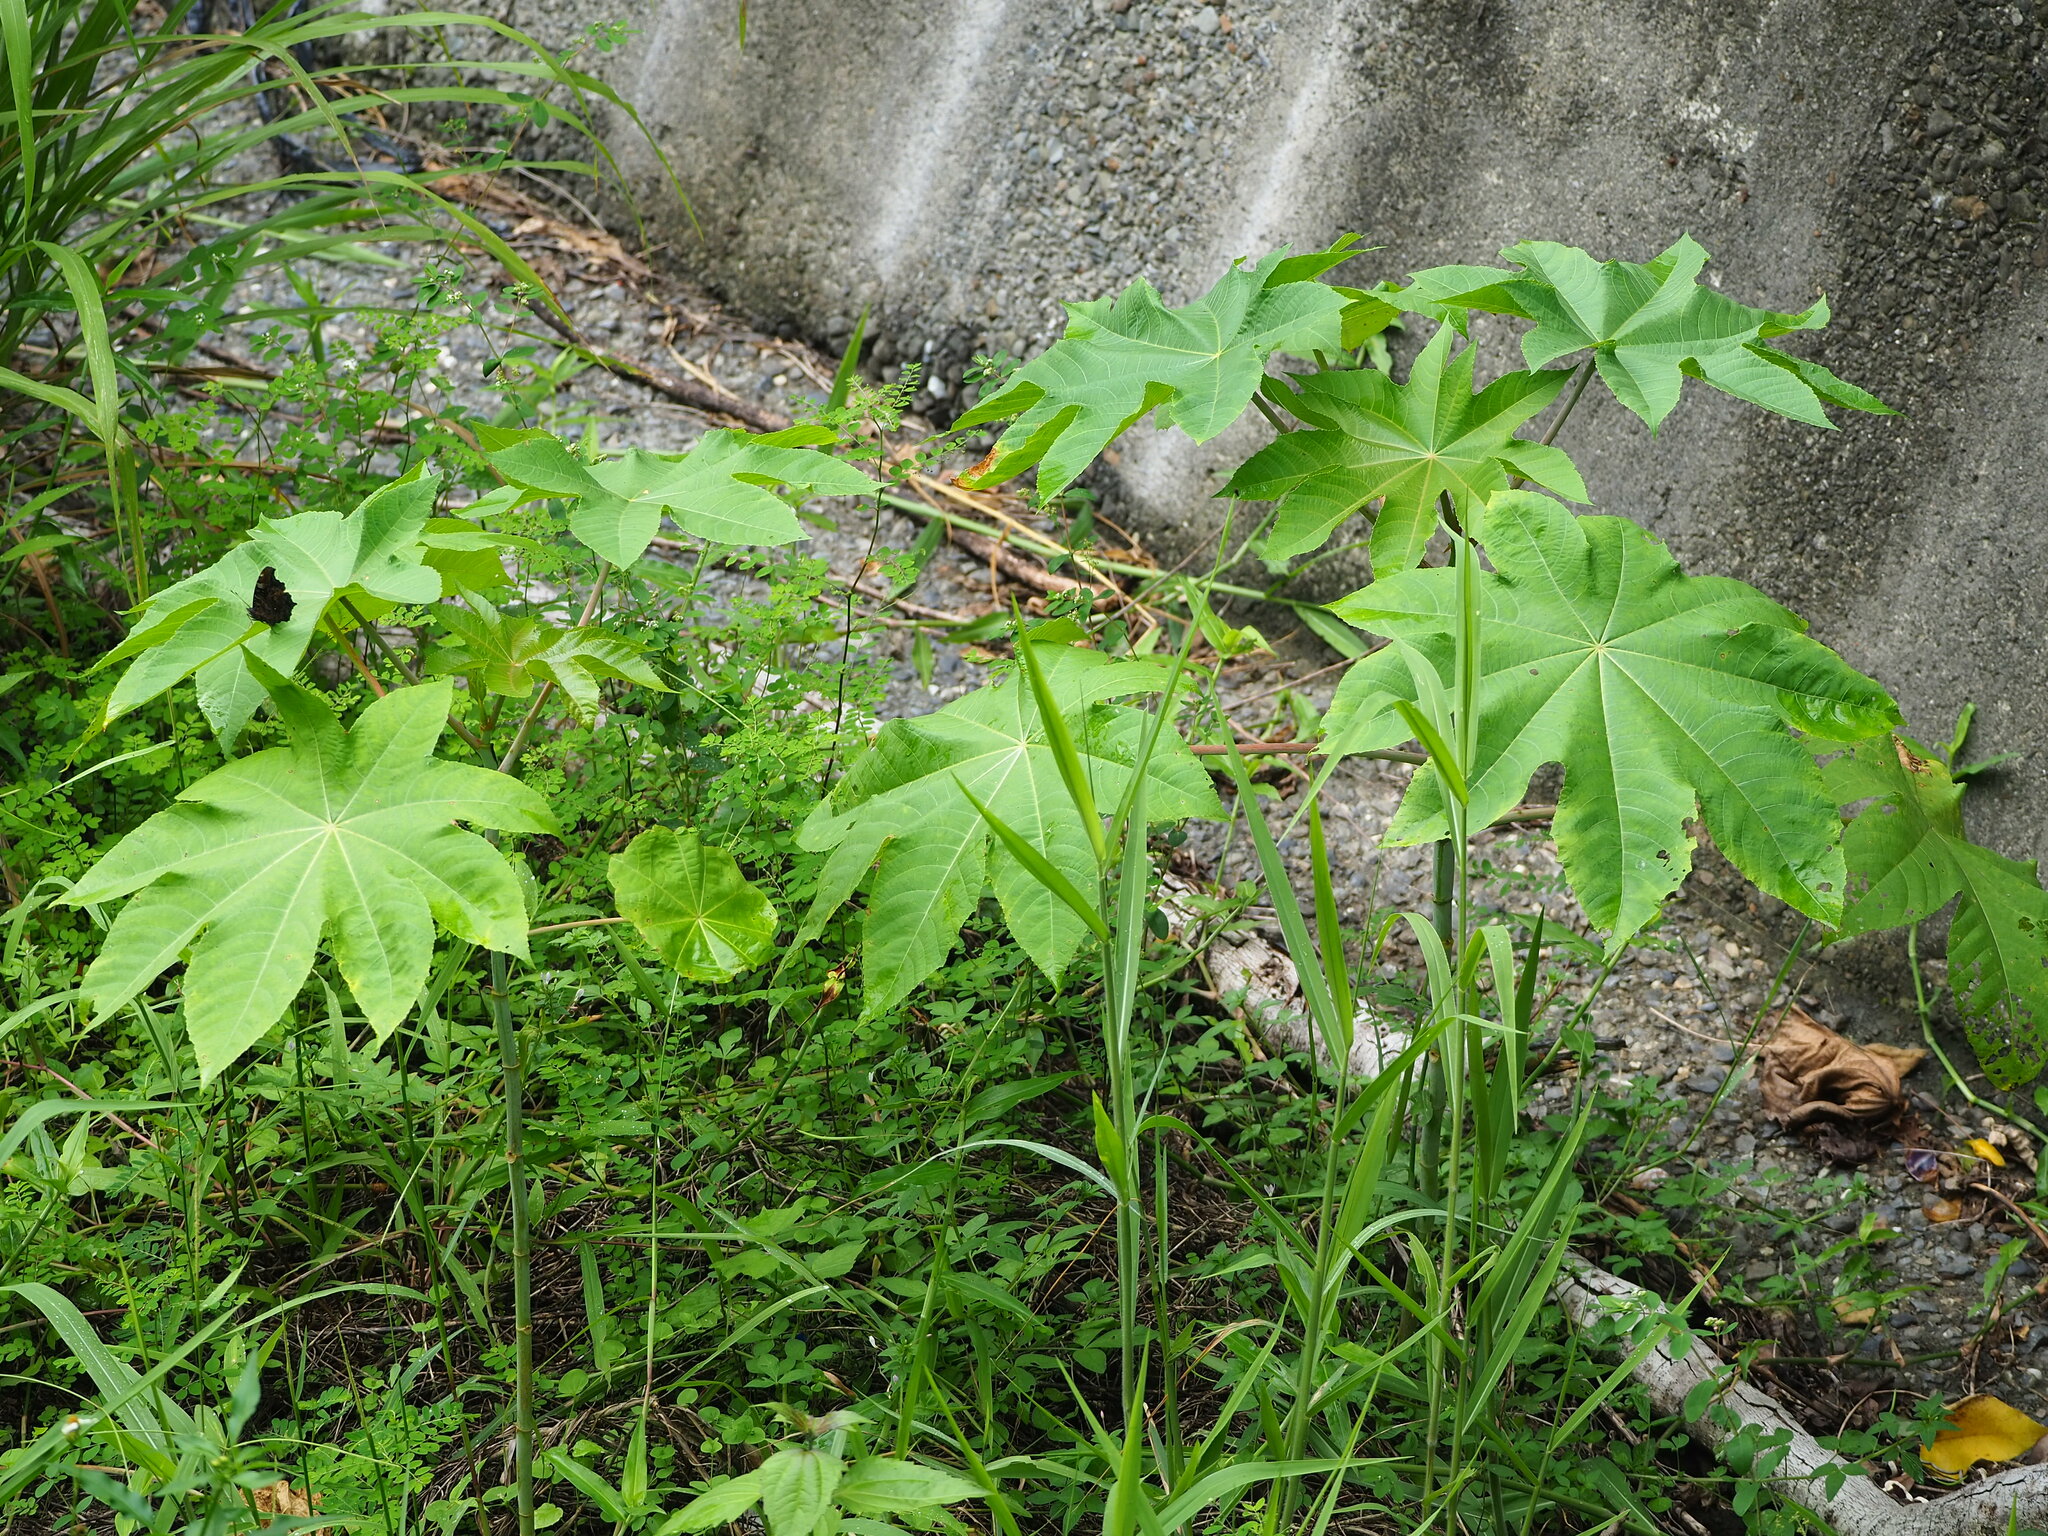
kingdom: Plantae
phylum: Tracheophyta
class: Magnoliopsida
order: Malpighiales
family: Euphorbiaceae
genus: Ricinus
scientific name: Ricinus communis
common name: Castor-oil-plant
